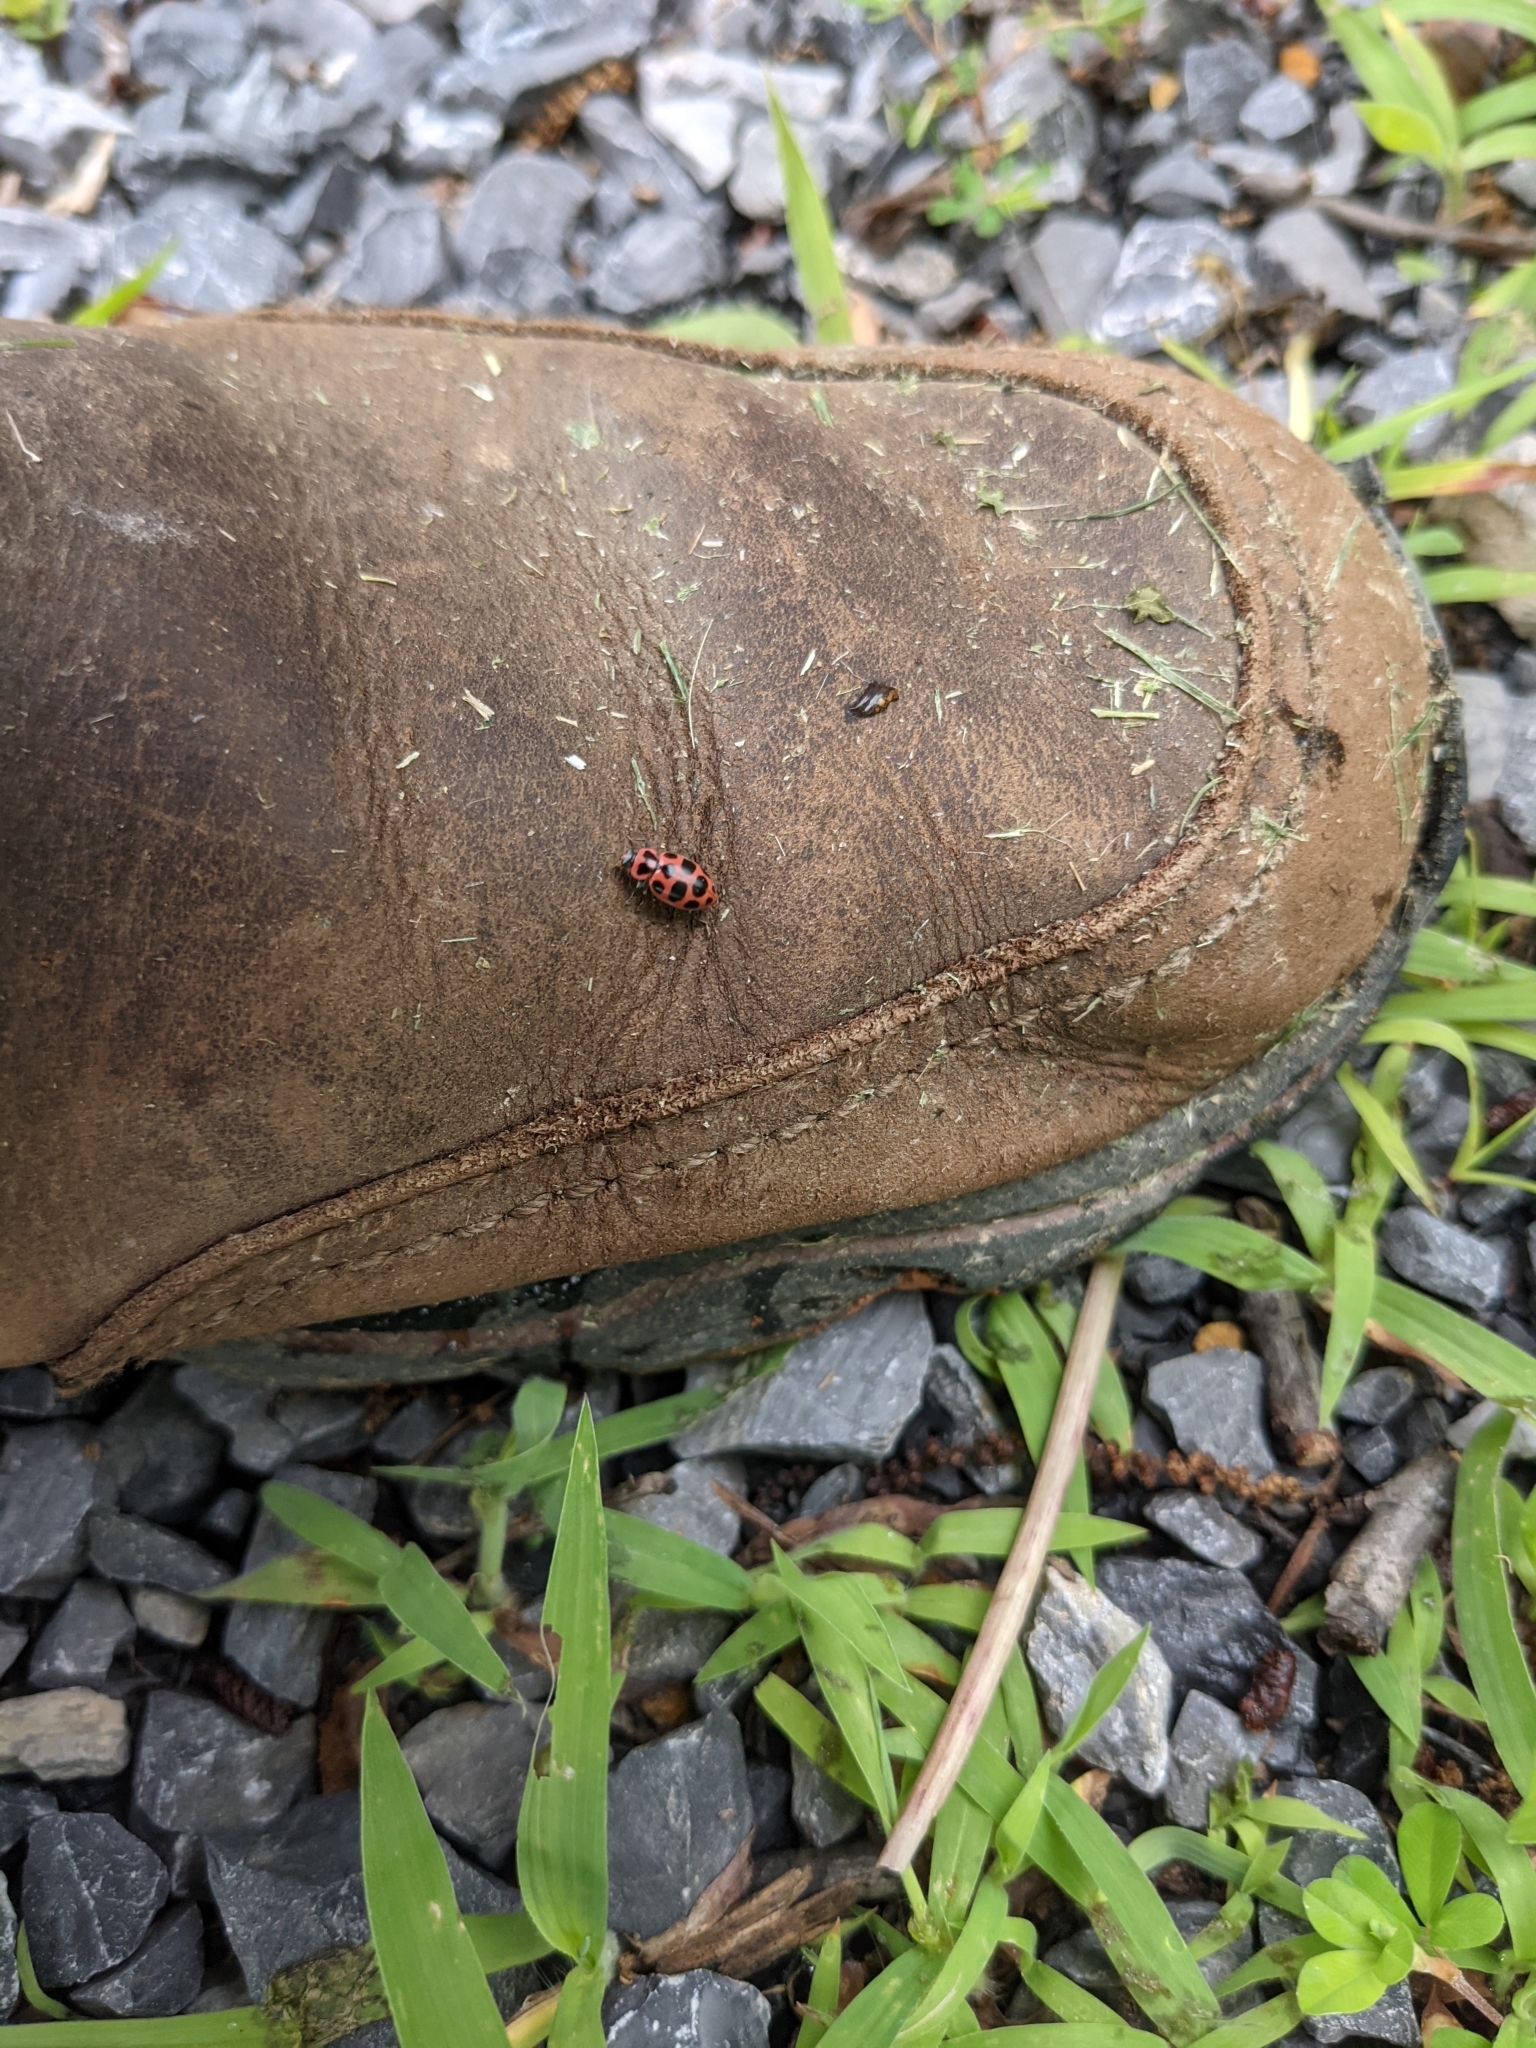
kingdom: Animalia
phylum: Arthropoda
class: Insecta
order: Coleoptera
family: Coccinellidae
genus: Coleomegilla
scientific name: Coleomegilla maculata
